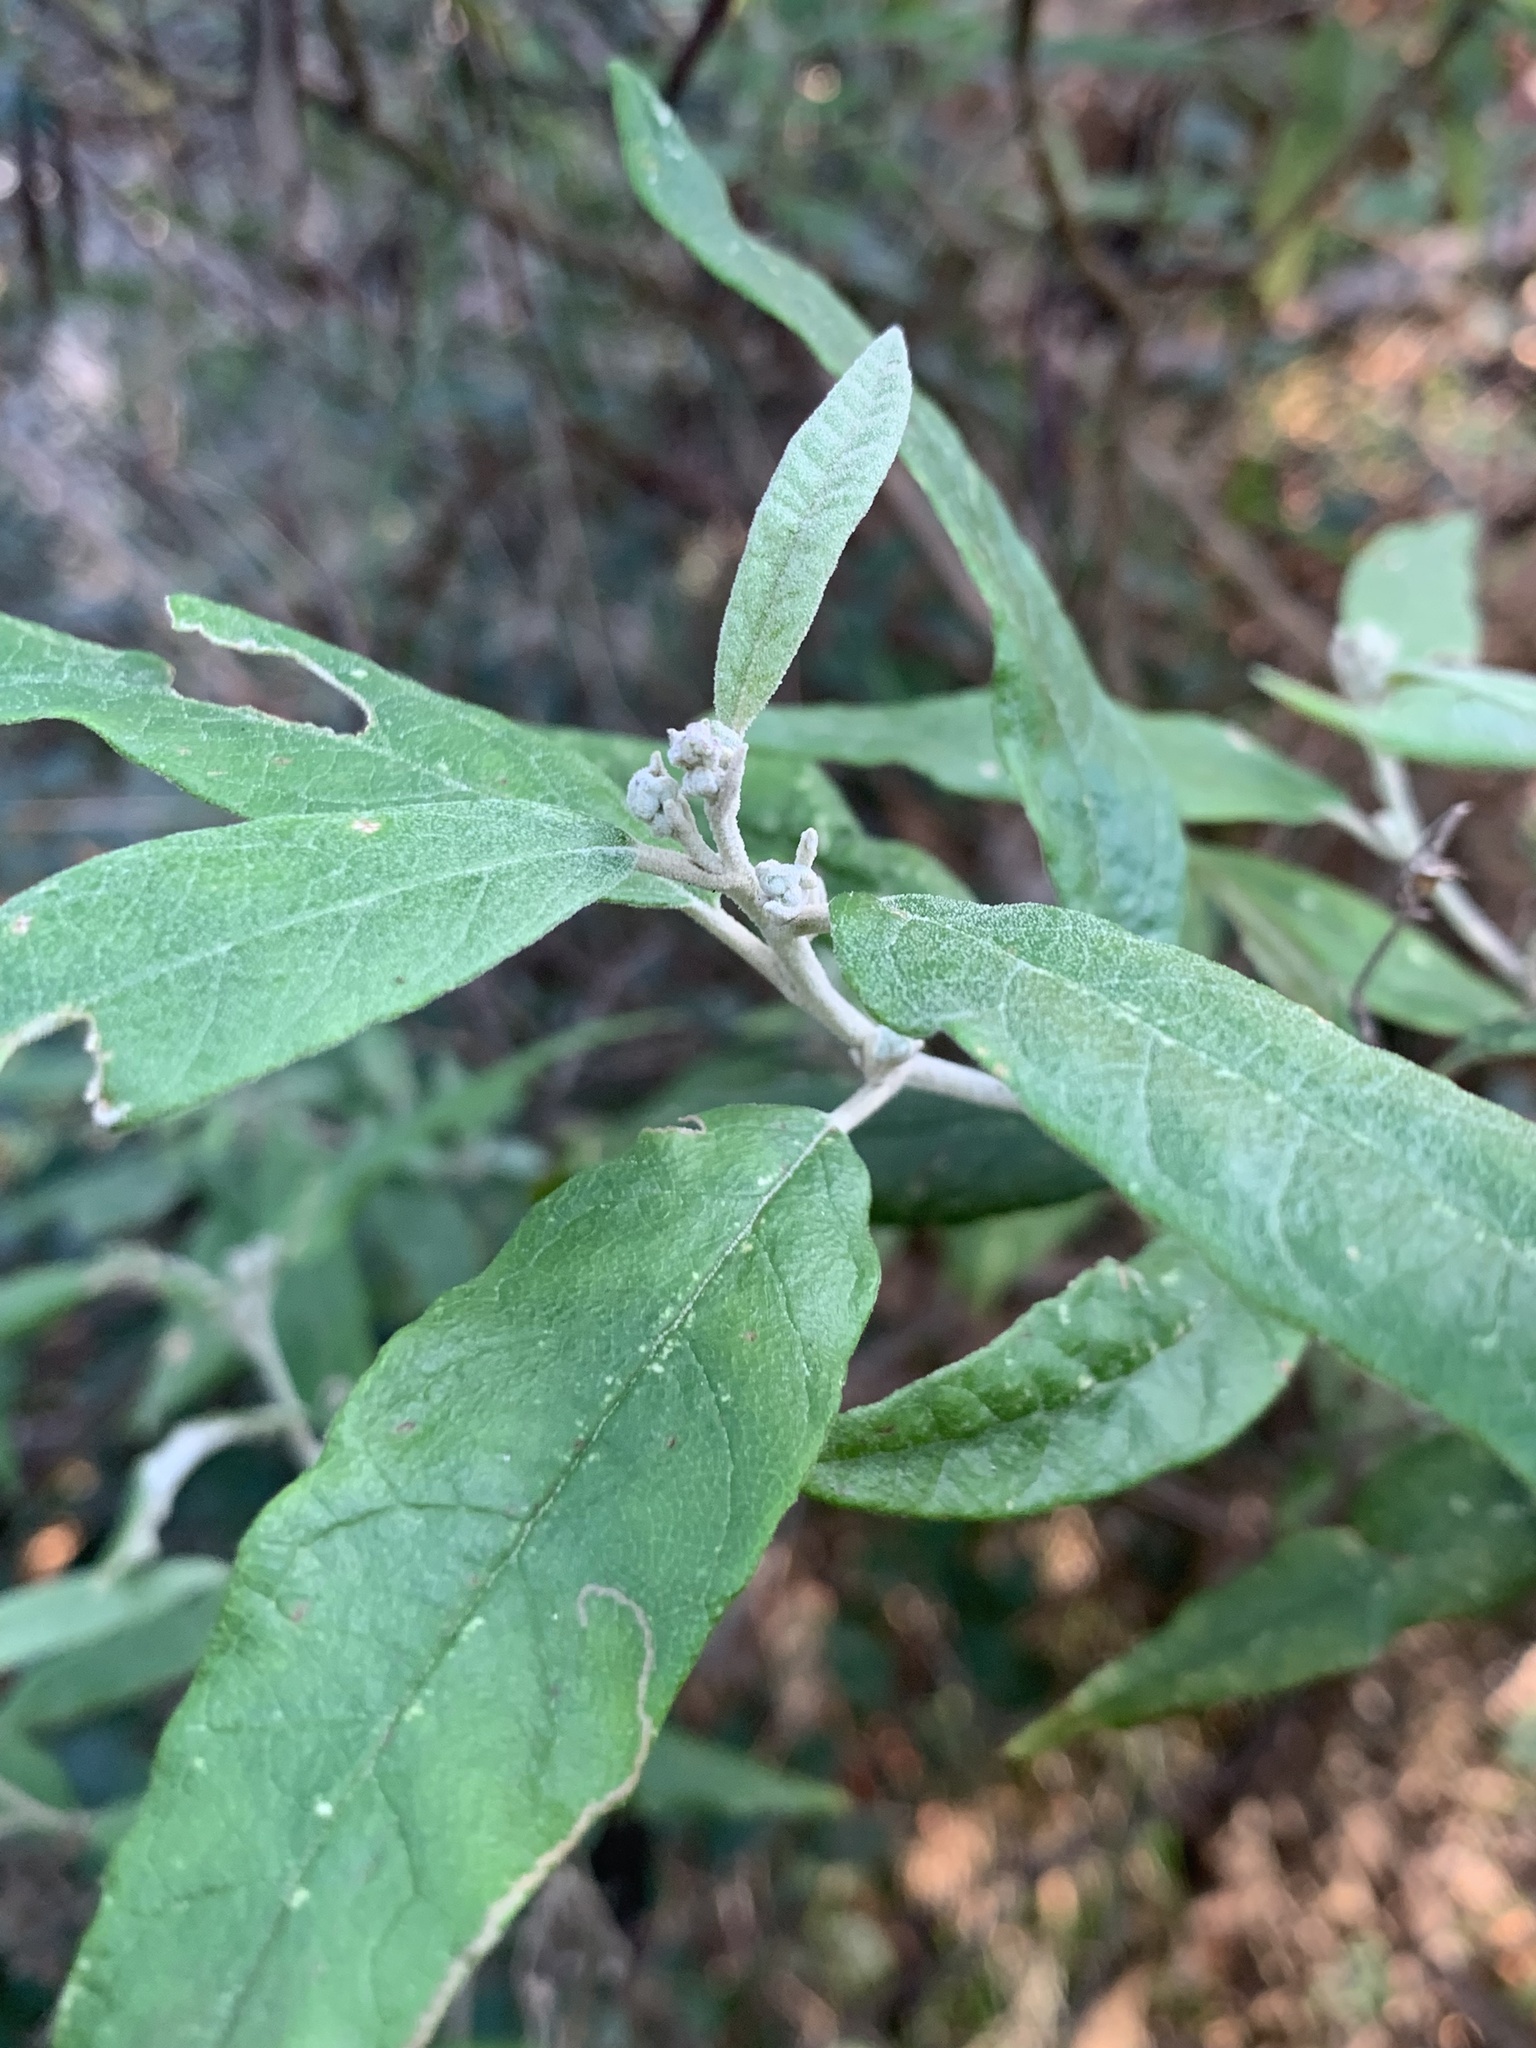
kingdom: Plantae
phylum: Tracheophyta
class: Magnoliopsida
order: Asterales
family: Asteraceae
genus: Olearia
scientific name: Olearia lirata
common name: Dusty daisybush
